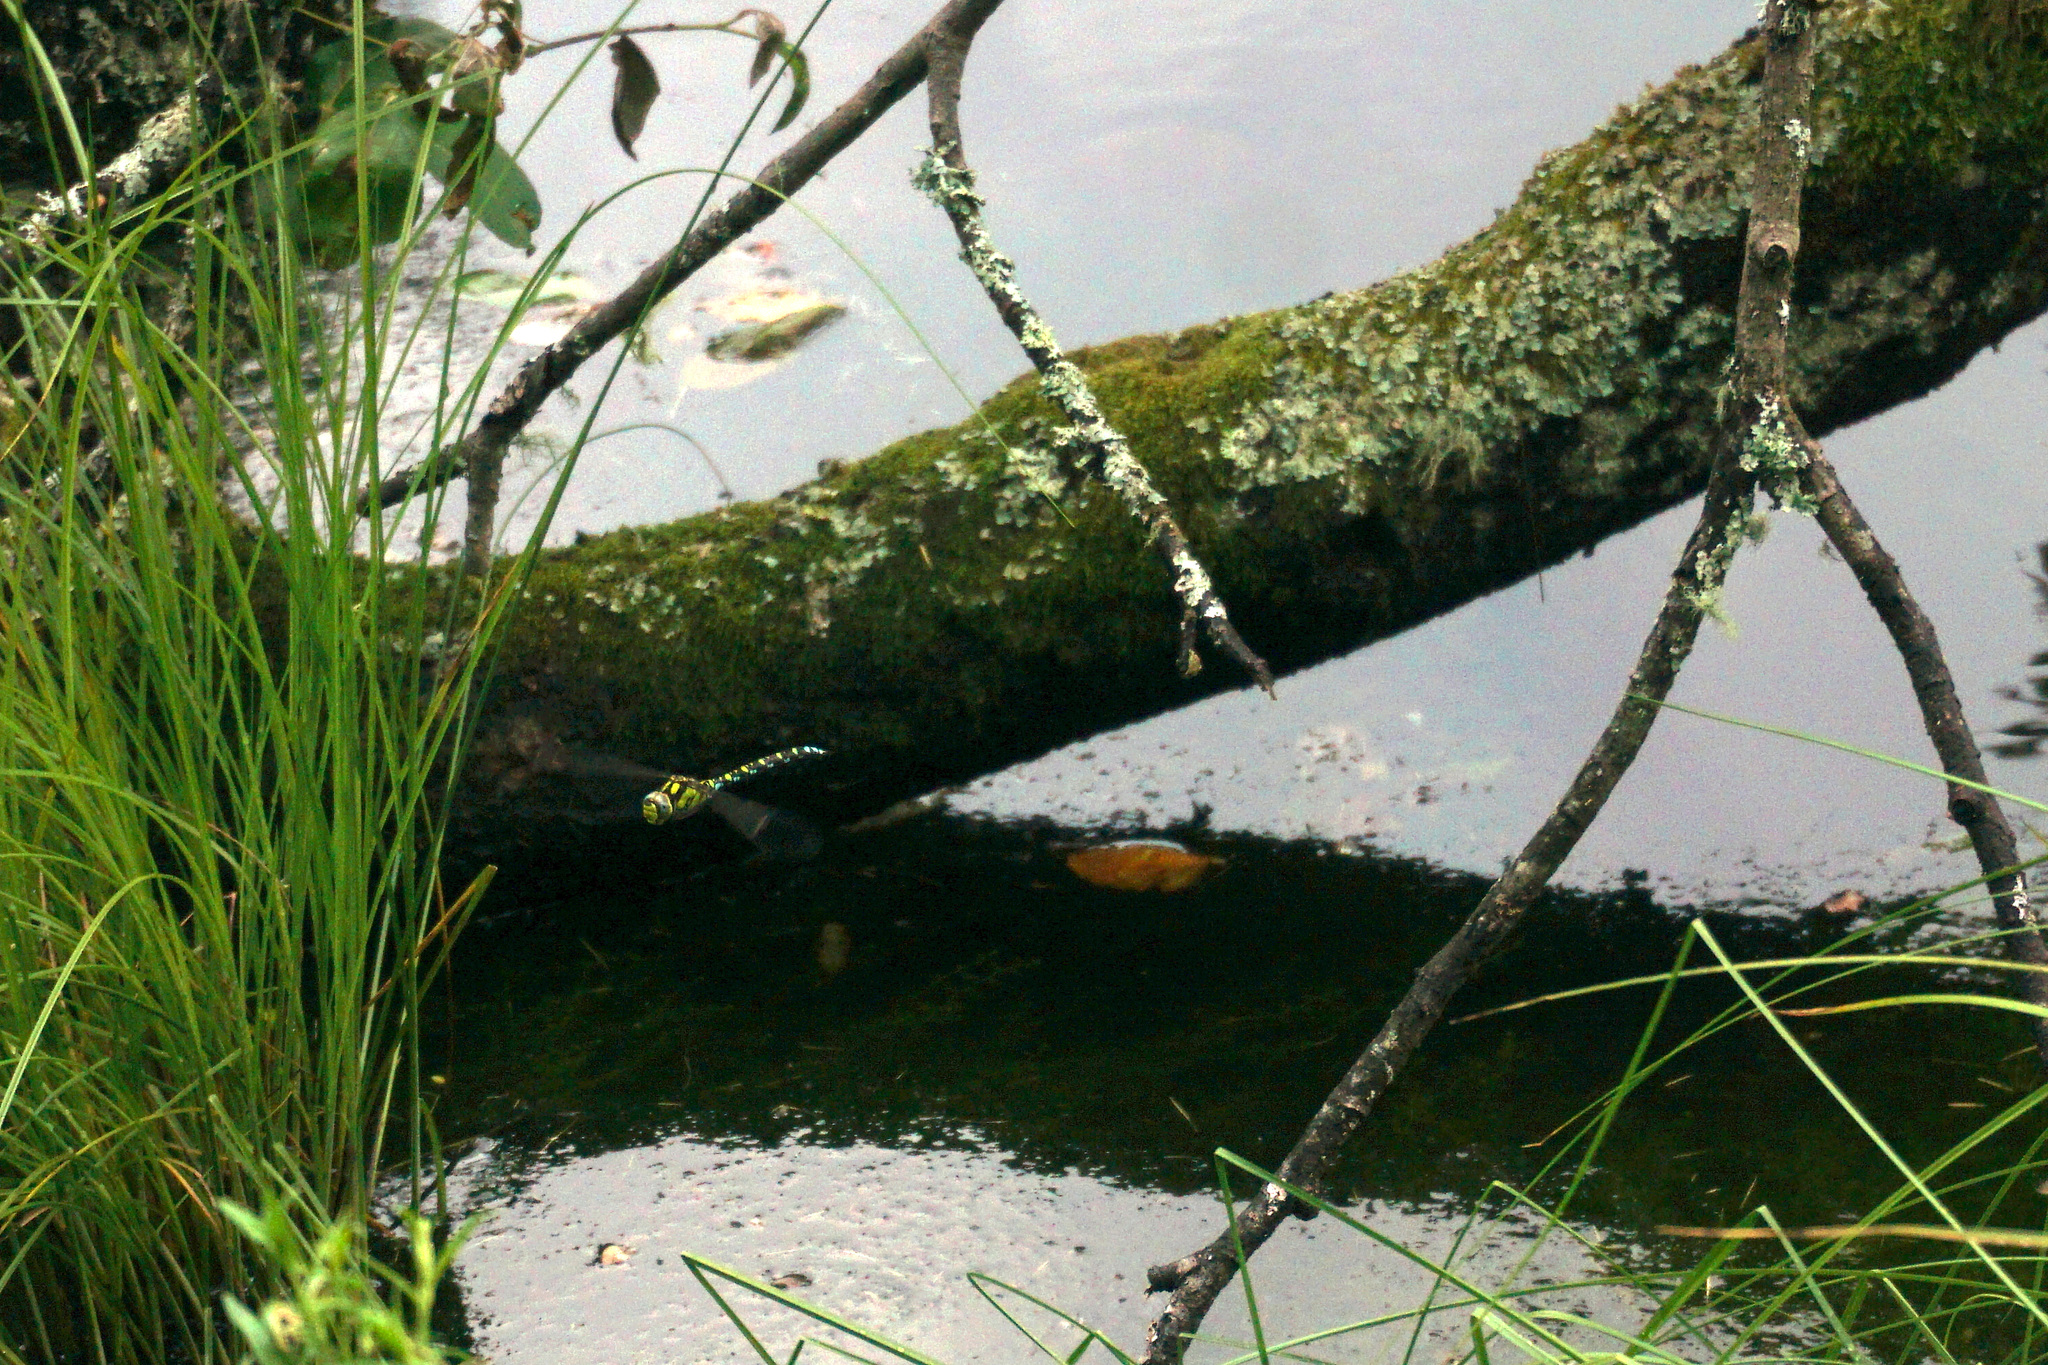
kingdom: Animalia
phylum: Arthropoda
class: Insecta
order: Odonata
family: Aeshnidae
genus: Aeshna
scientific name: Aeshna cyanea
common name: Southern hawker
